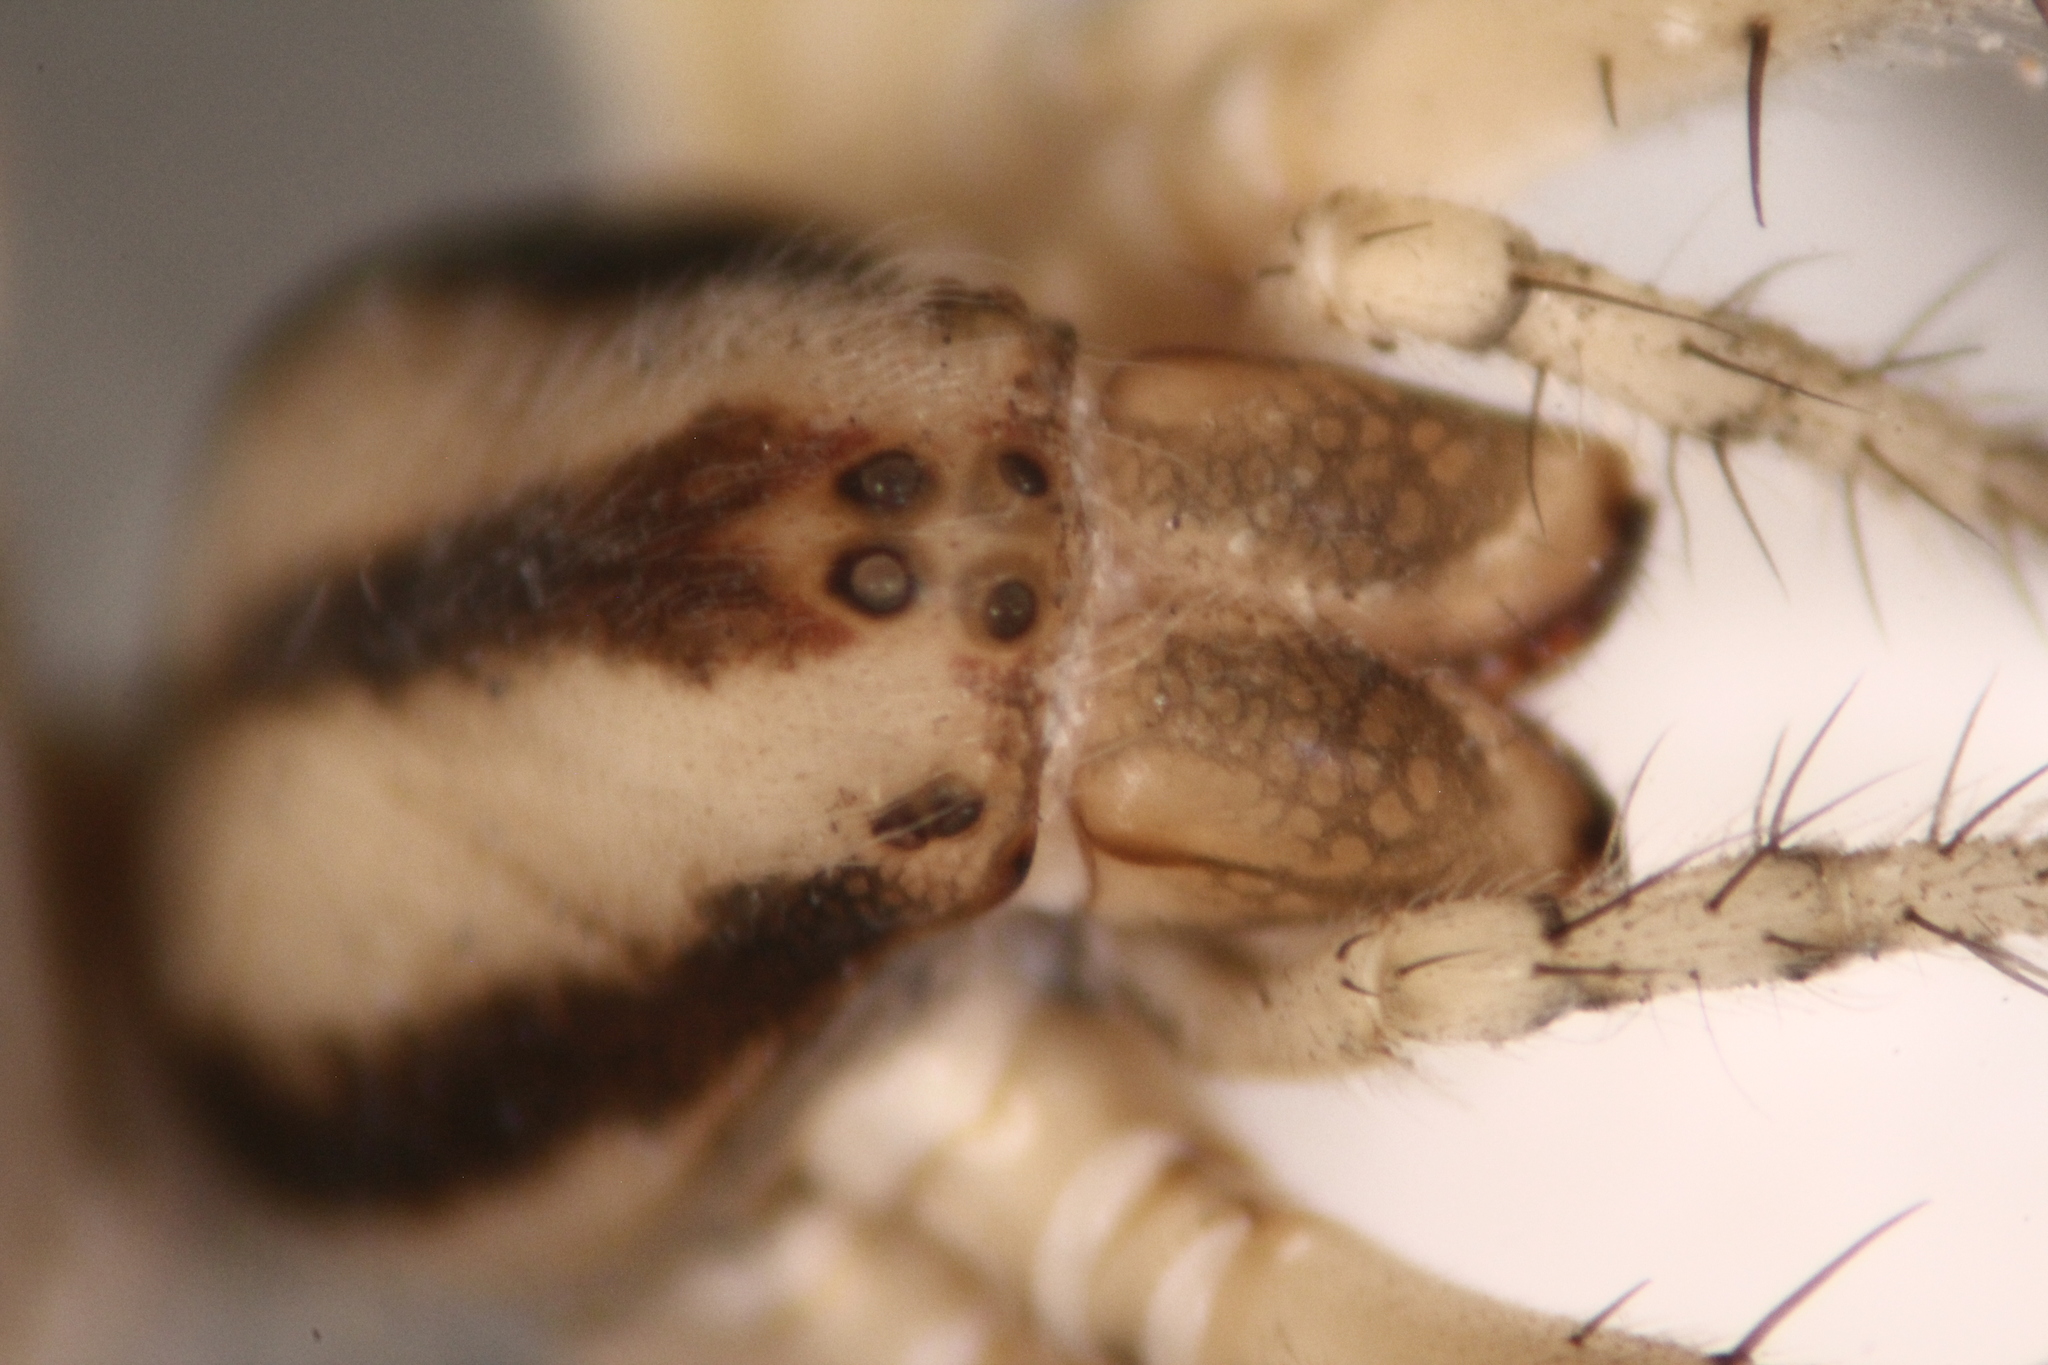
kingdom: Animalia
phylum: Arthropoda
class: Arachnida
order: Araneae
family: Araneidae
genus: Neoscona
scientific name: Neoscona theisi
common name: Spider
